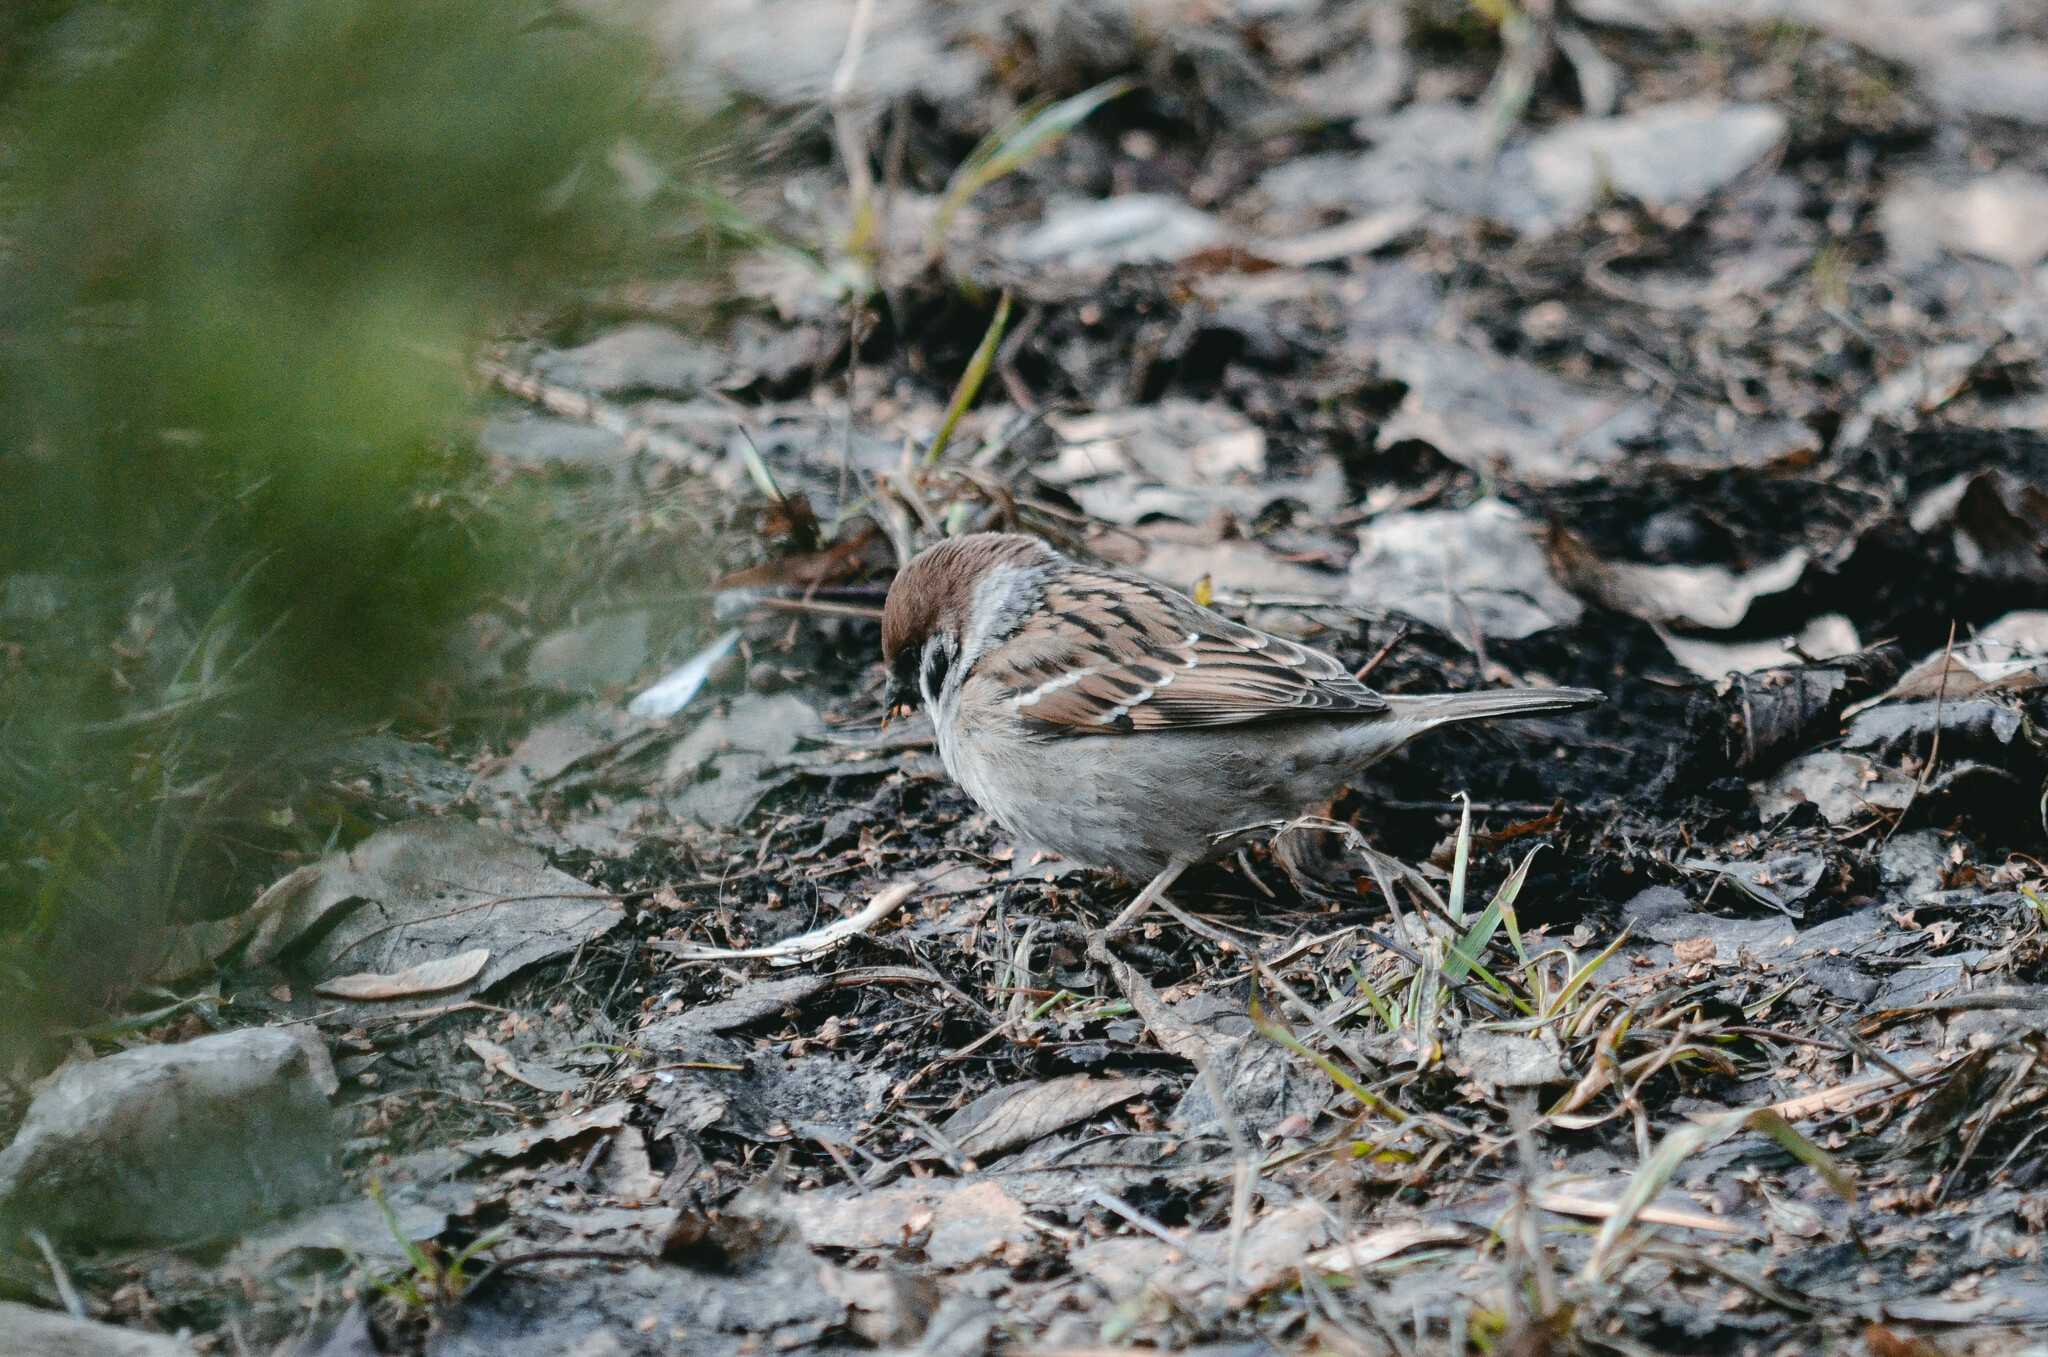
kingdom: Animalia
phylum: Chordata
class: Aves
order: Passeriformes
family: Passeridae
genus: Passer
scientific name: Passer montanus
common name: Eurasian tree sparrow
